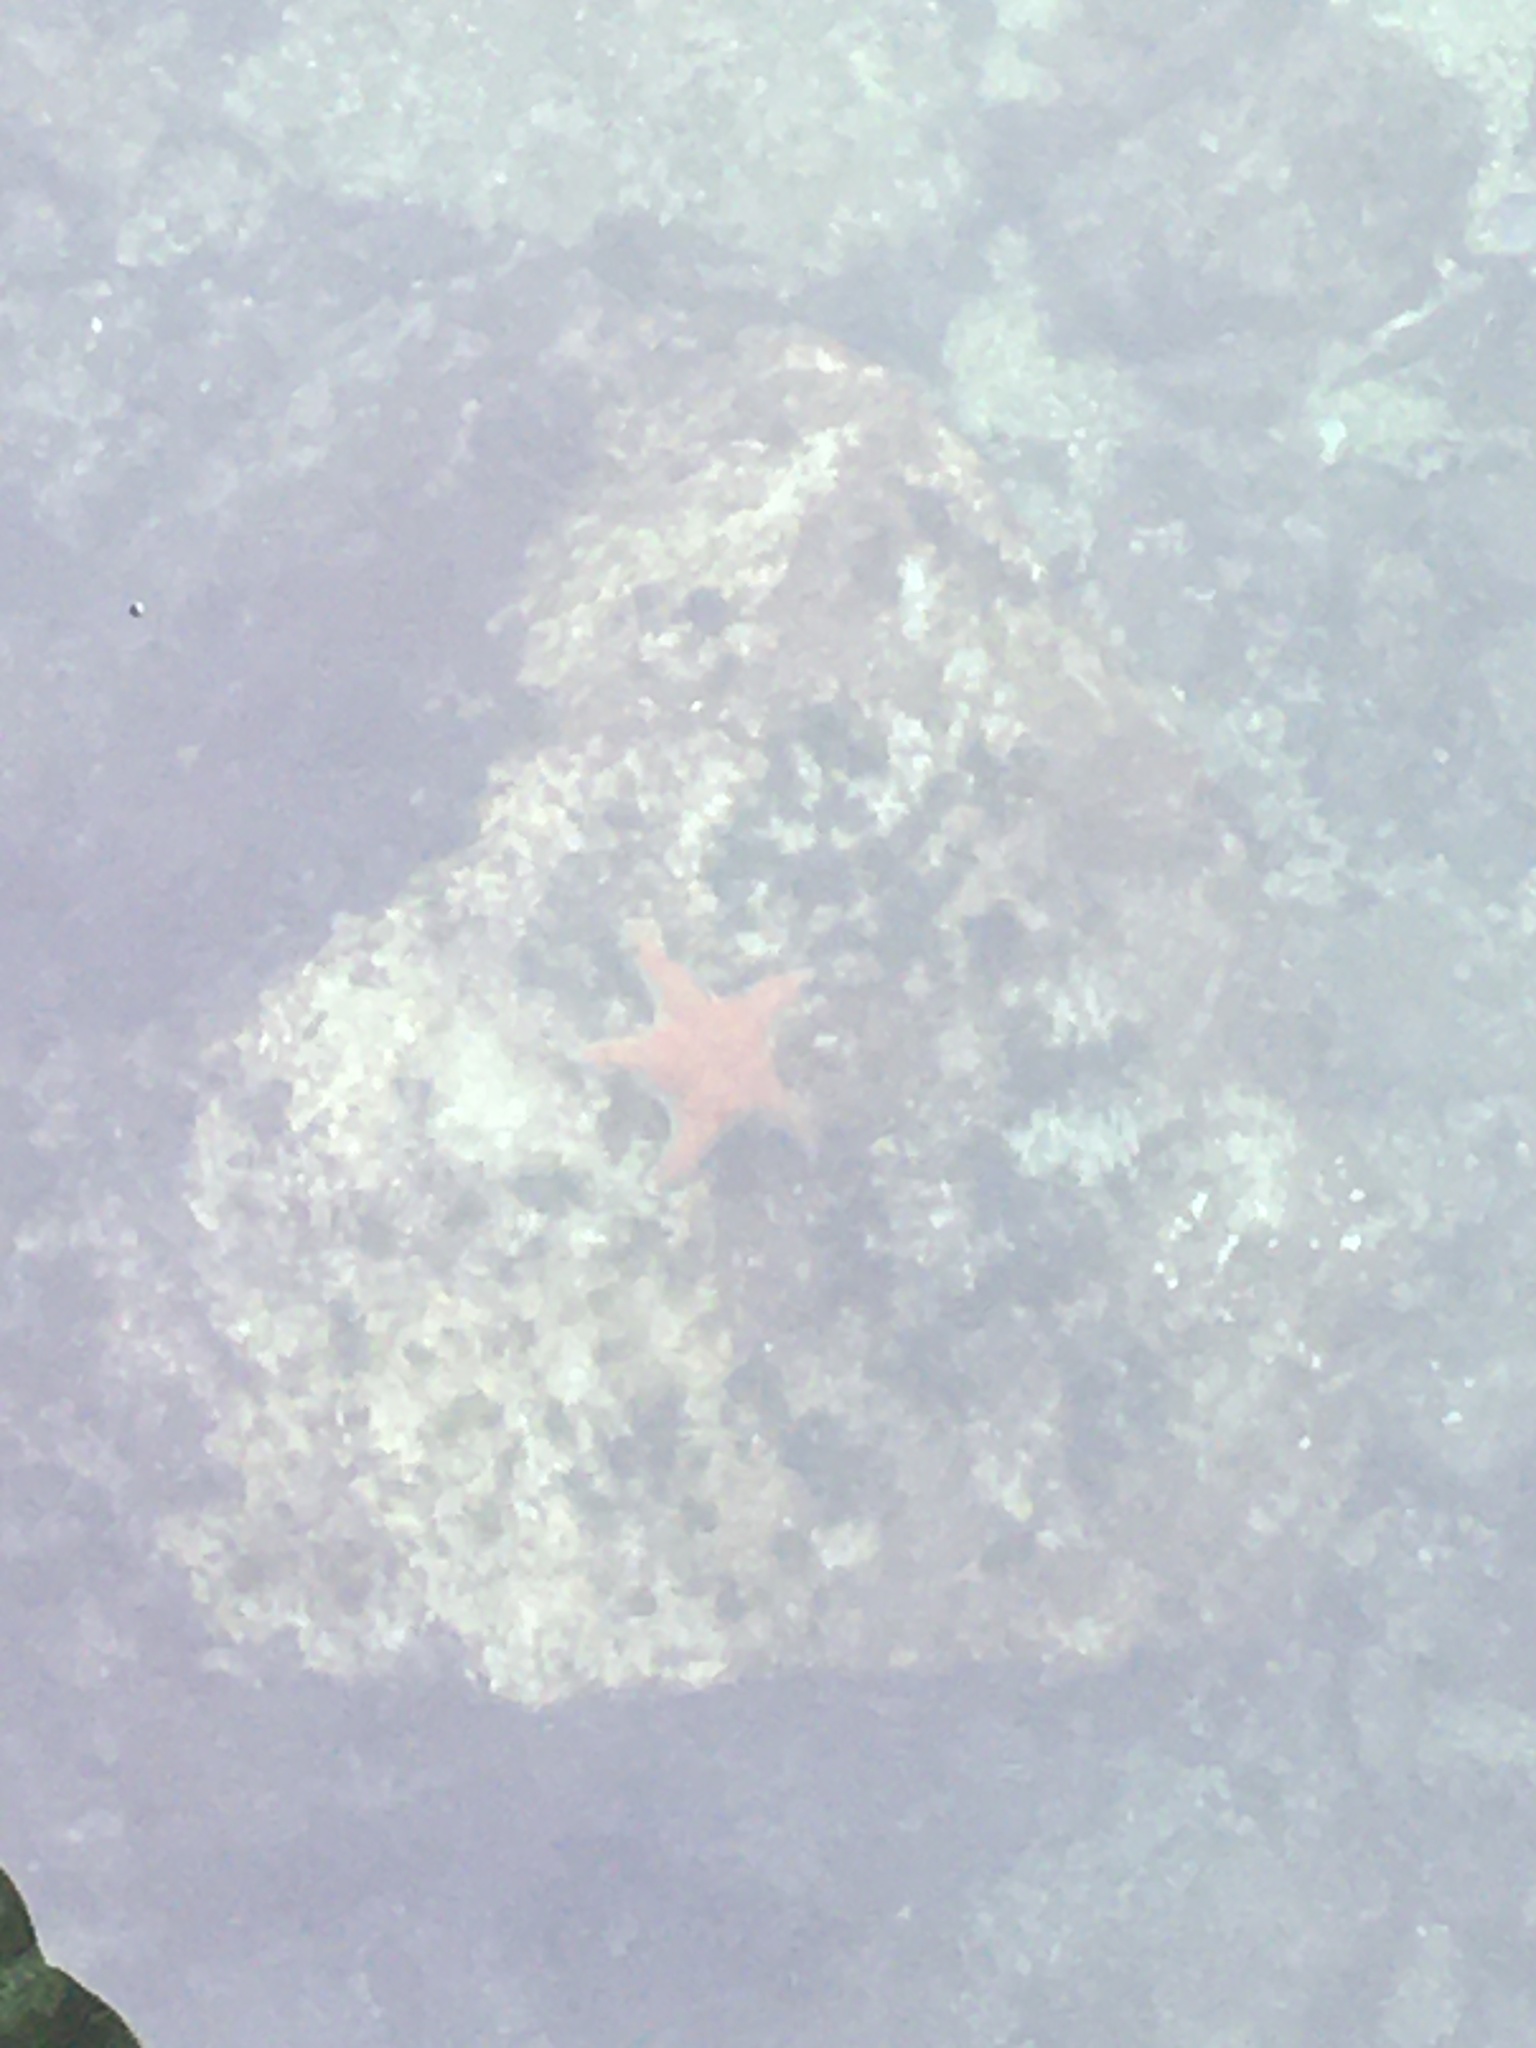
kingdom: Animalia
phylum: Echinodermata
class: Asteroidea
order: Valvatida
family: Asteropseidae
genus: Dermasterias
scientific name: Dermasterias imbricata
